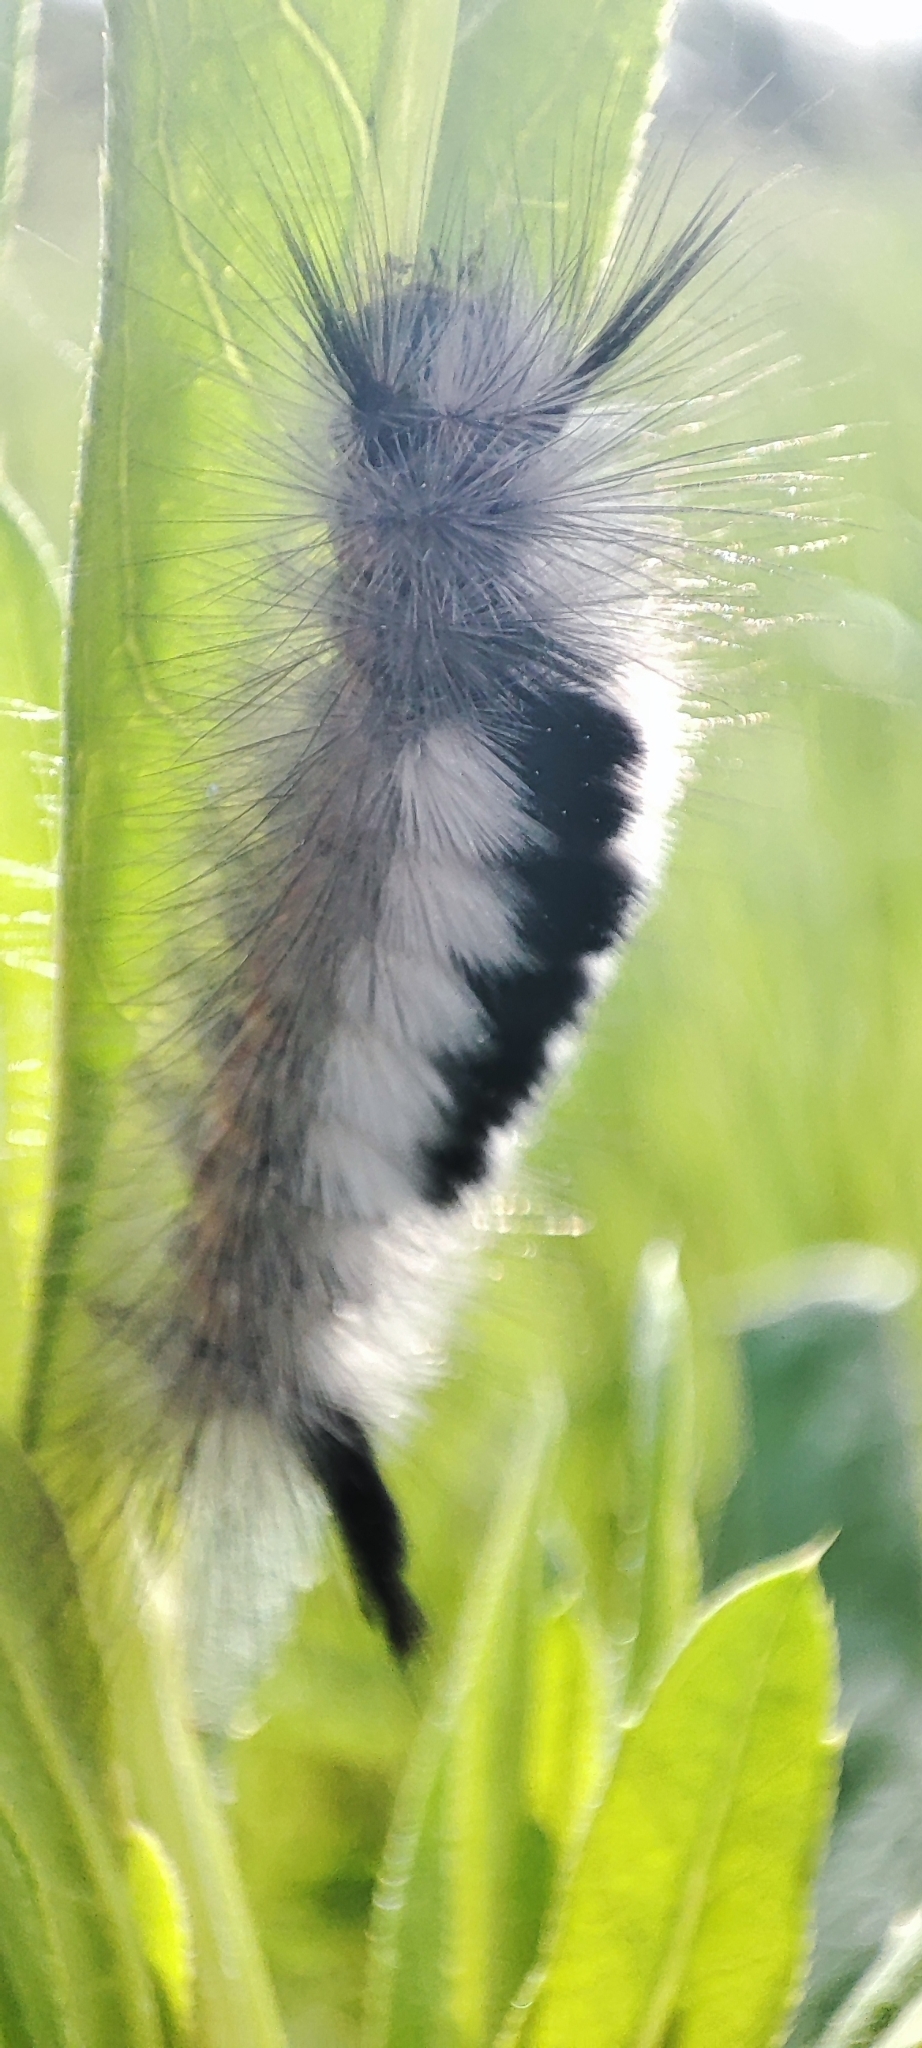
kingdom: Animalia
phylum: Arthropoda
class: Insecta
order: Lepidoptera
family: Erebidae
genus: Calliteara
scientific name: Calliteara Dicallomera fascelina
